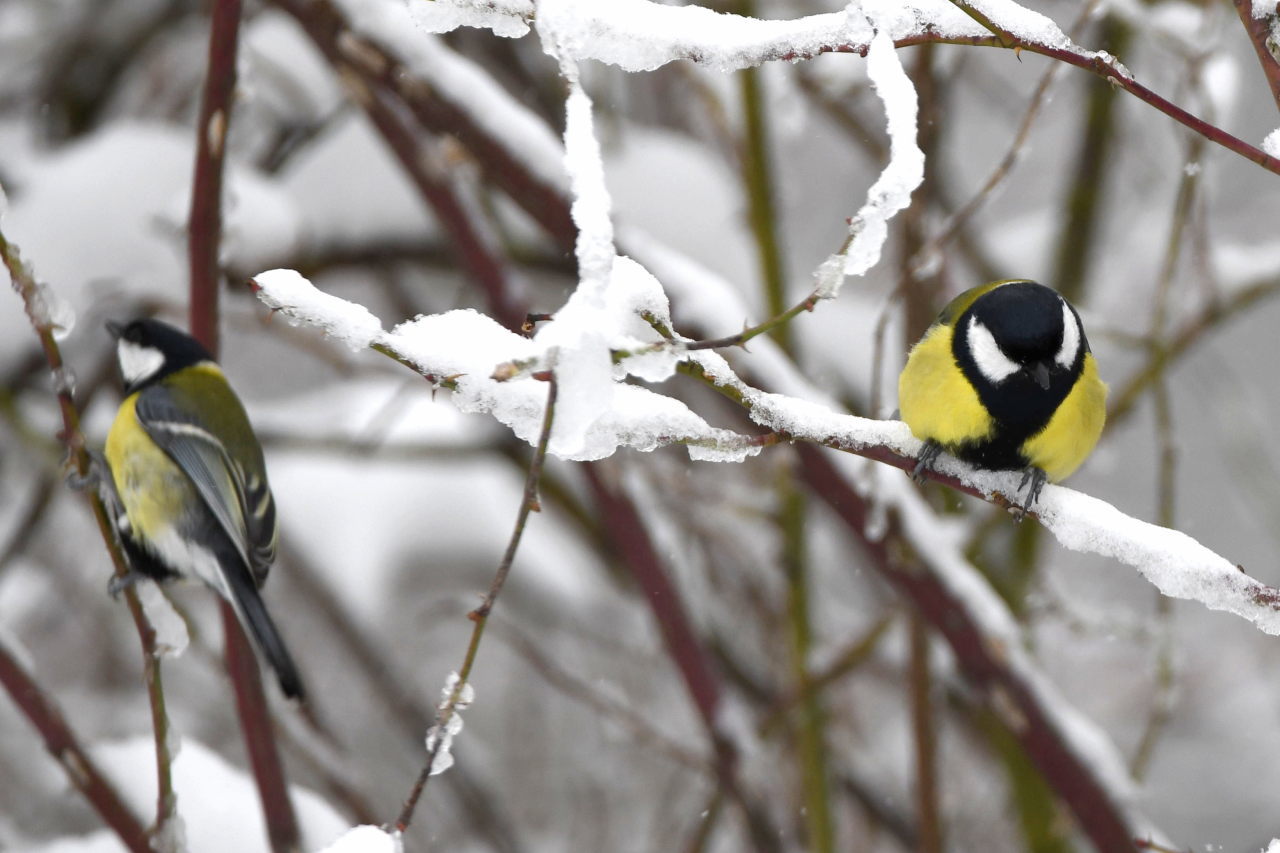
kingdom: Animalia
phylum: Chordata
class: Aves
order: Passeriformes
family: Paridae
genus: Parus
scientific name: Parus major
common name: Great tit
